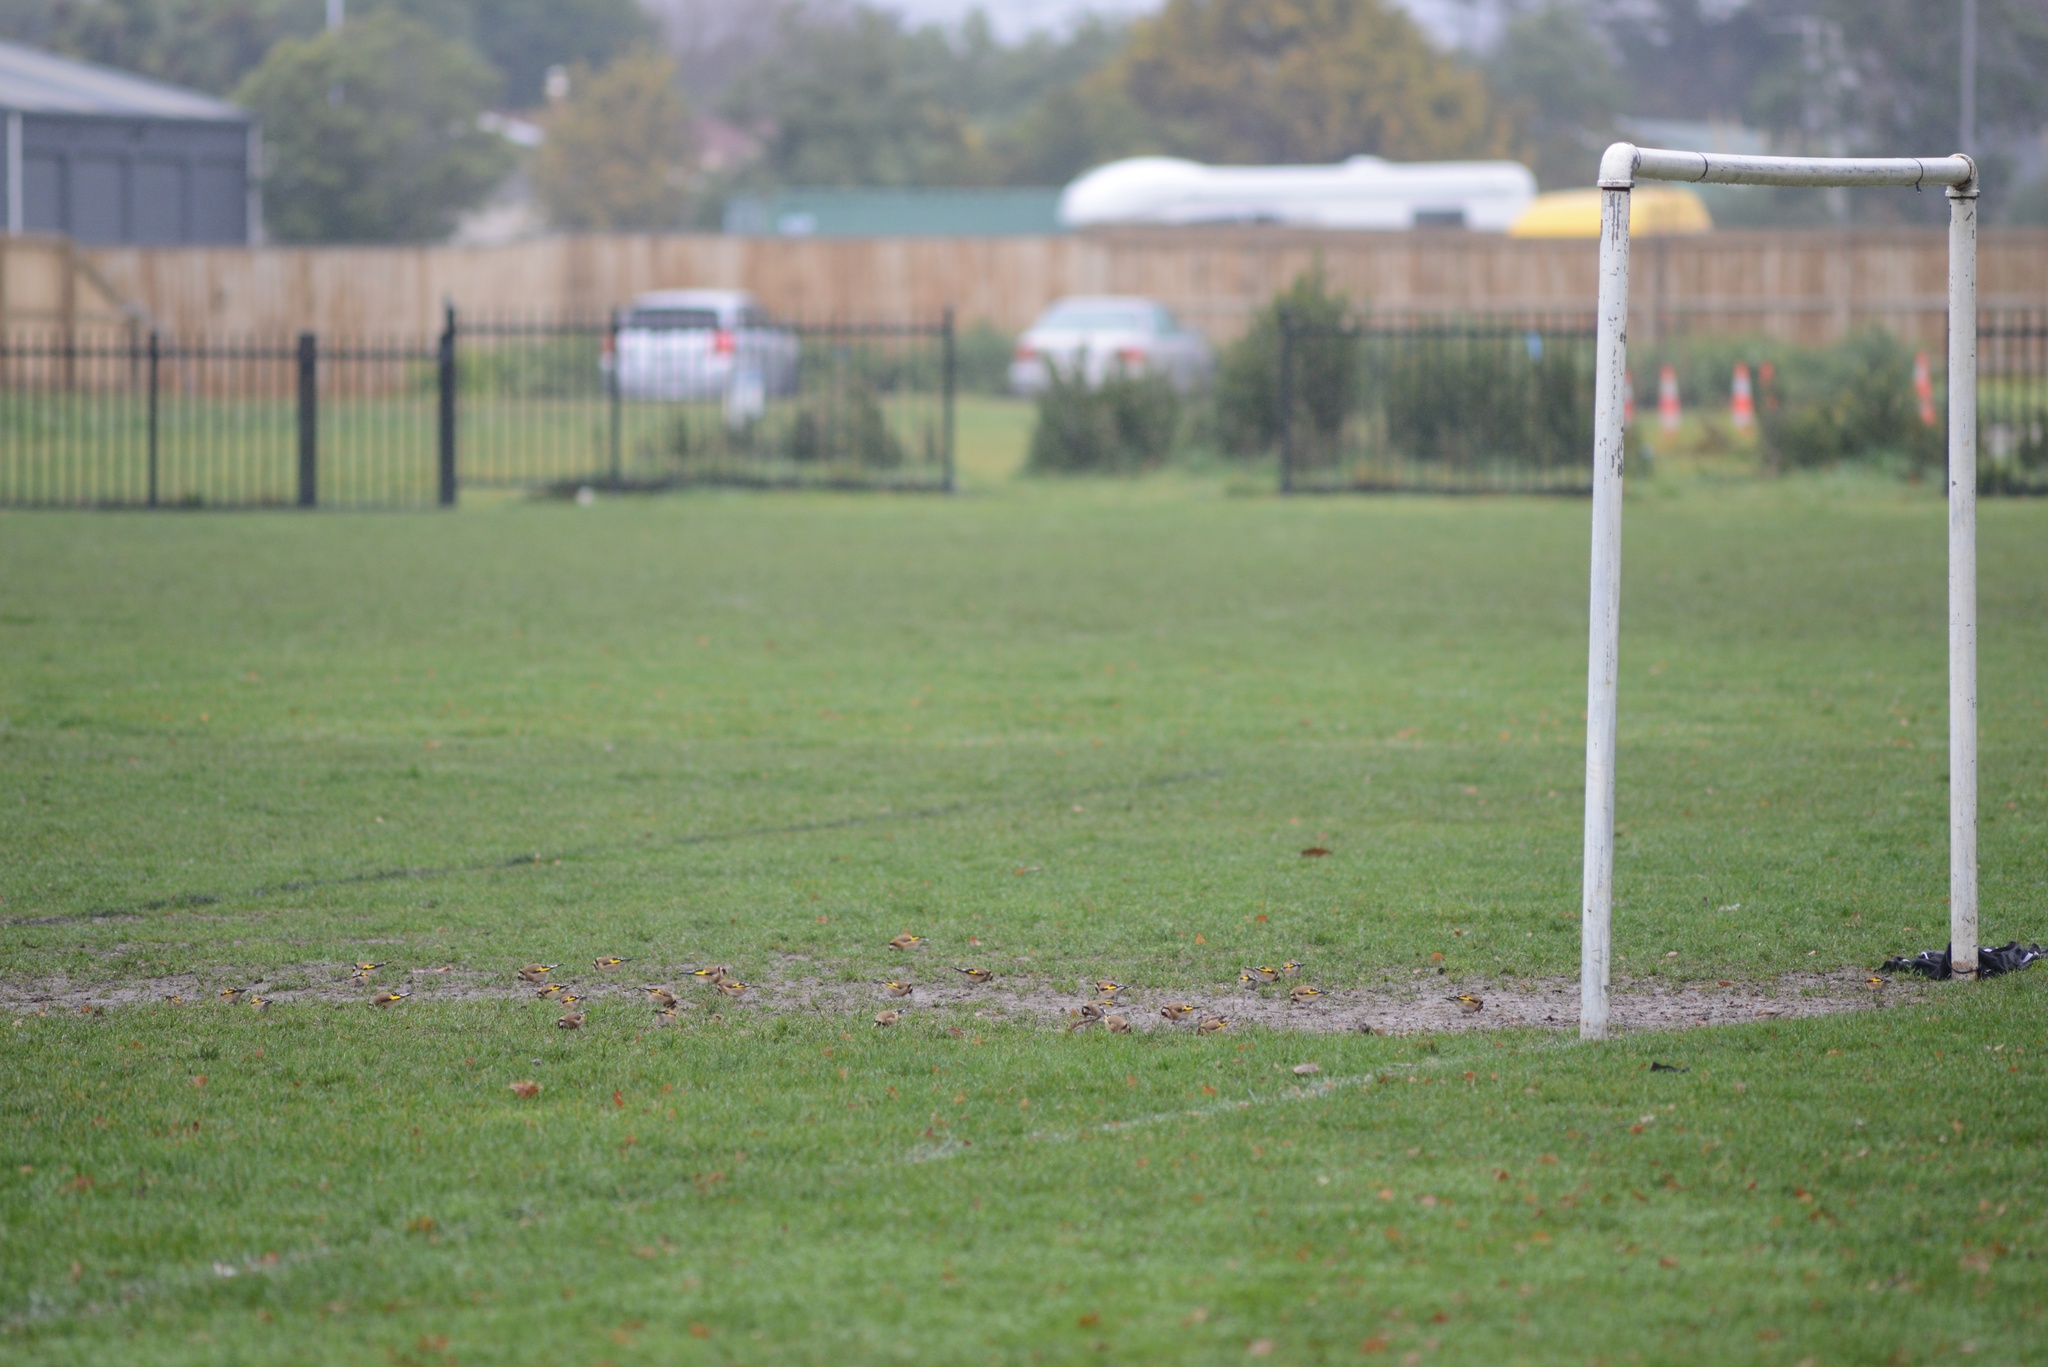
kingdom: Animalia
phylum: Chordata
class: Aves
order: Passeriformes
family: Fringillidae
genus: Carduelis
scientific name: Carduelis carduelis
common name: European goldfinch
